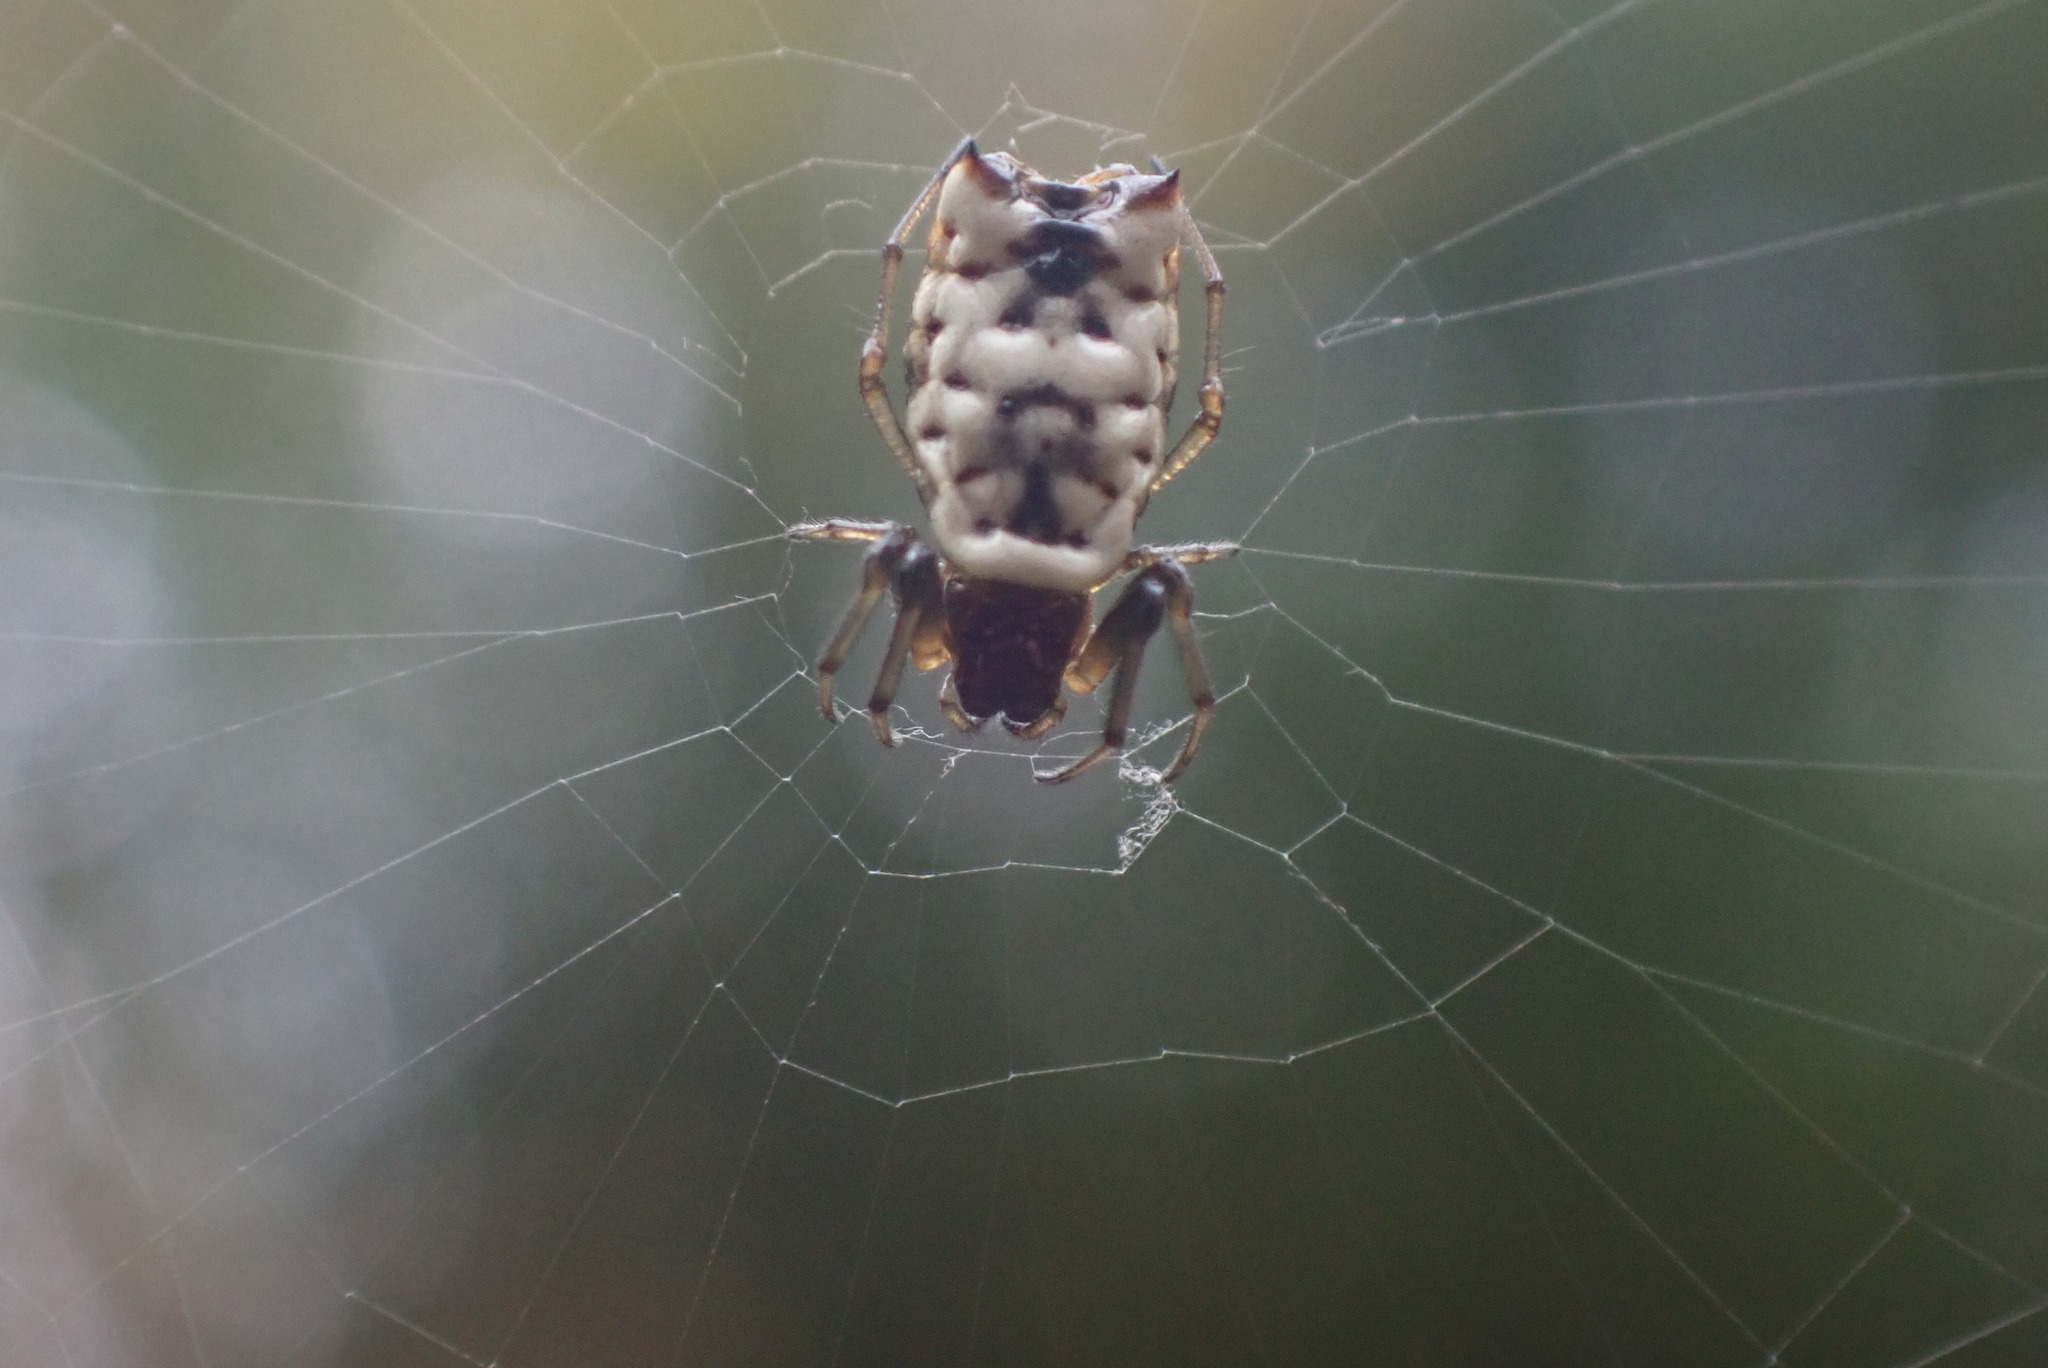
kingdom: Animalia
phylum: Arthropoda
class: Arachnida
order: Araneae
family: Araneidae
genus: Micrathena
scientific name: Micrathena mitrata
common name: Orb weavers
